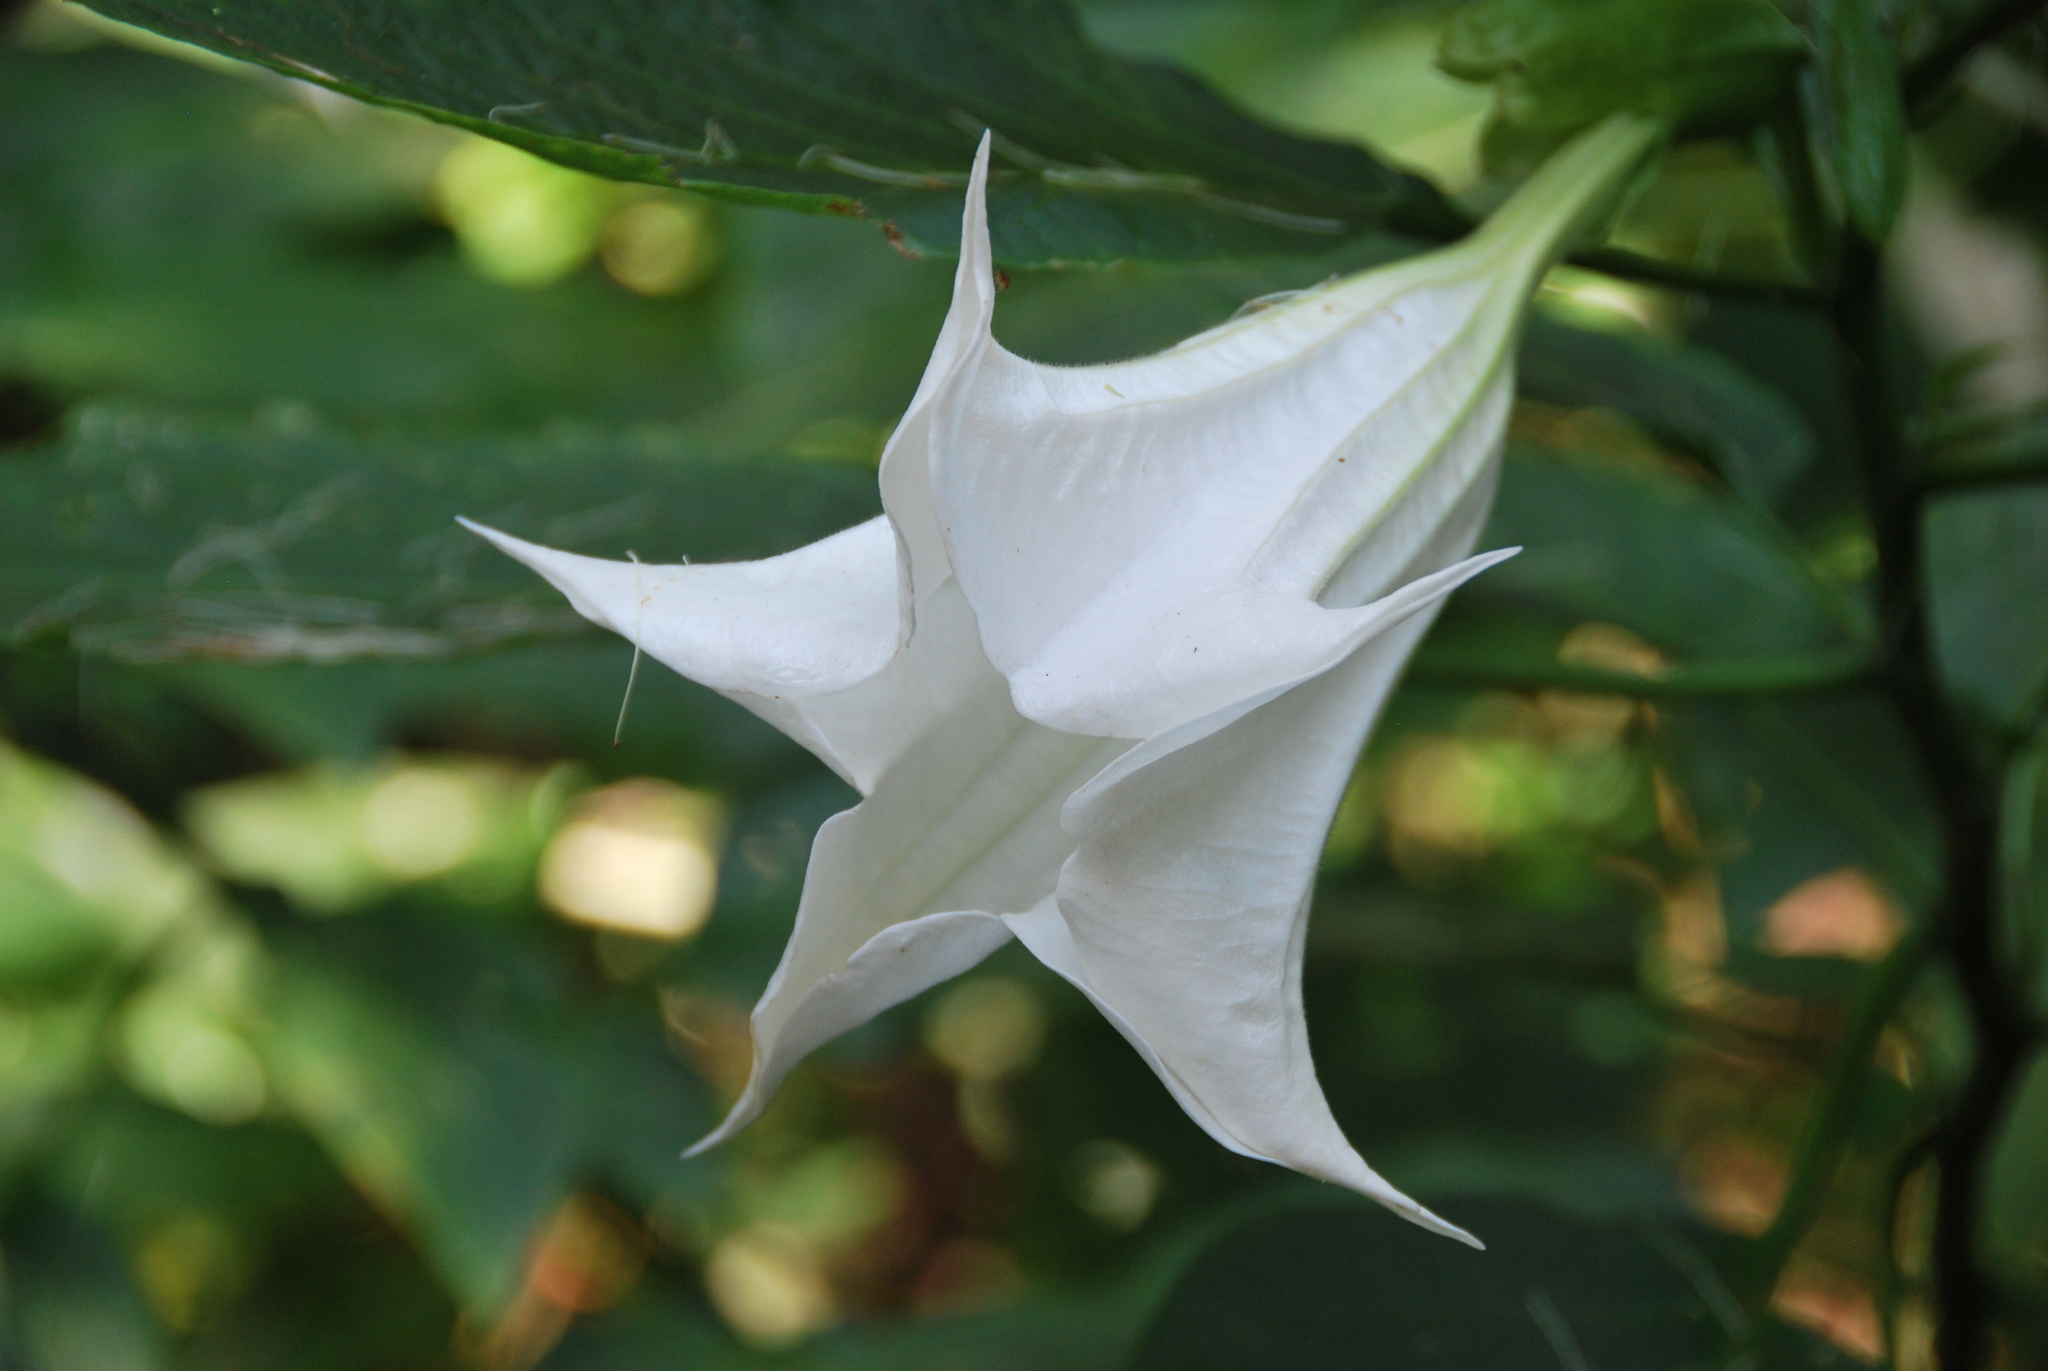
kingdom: Plantae
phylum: Tracheophyta
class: Magnoliopsida
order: Solanales
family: Solanaceae
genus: Brugmansia
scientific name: Brugmansia suaveolens
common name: Angel's tears
